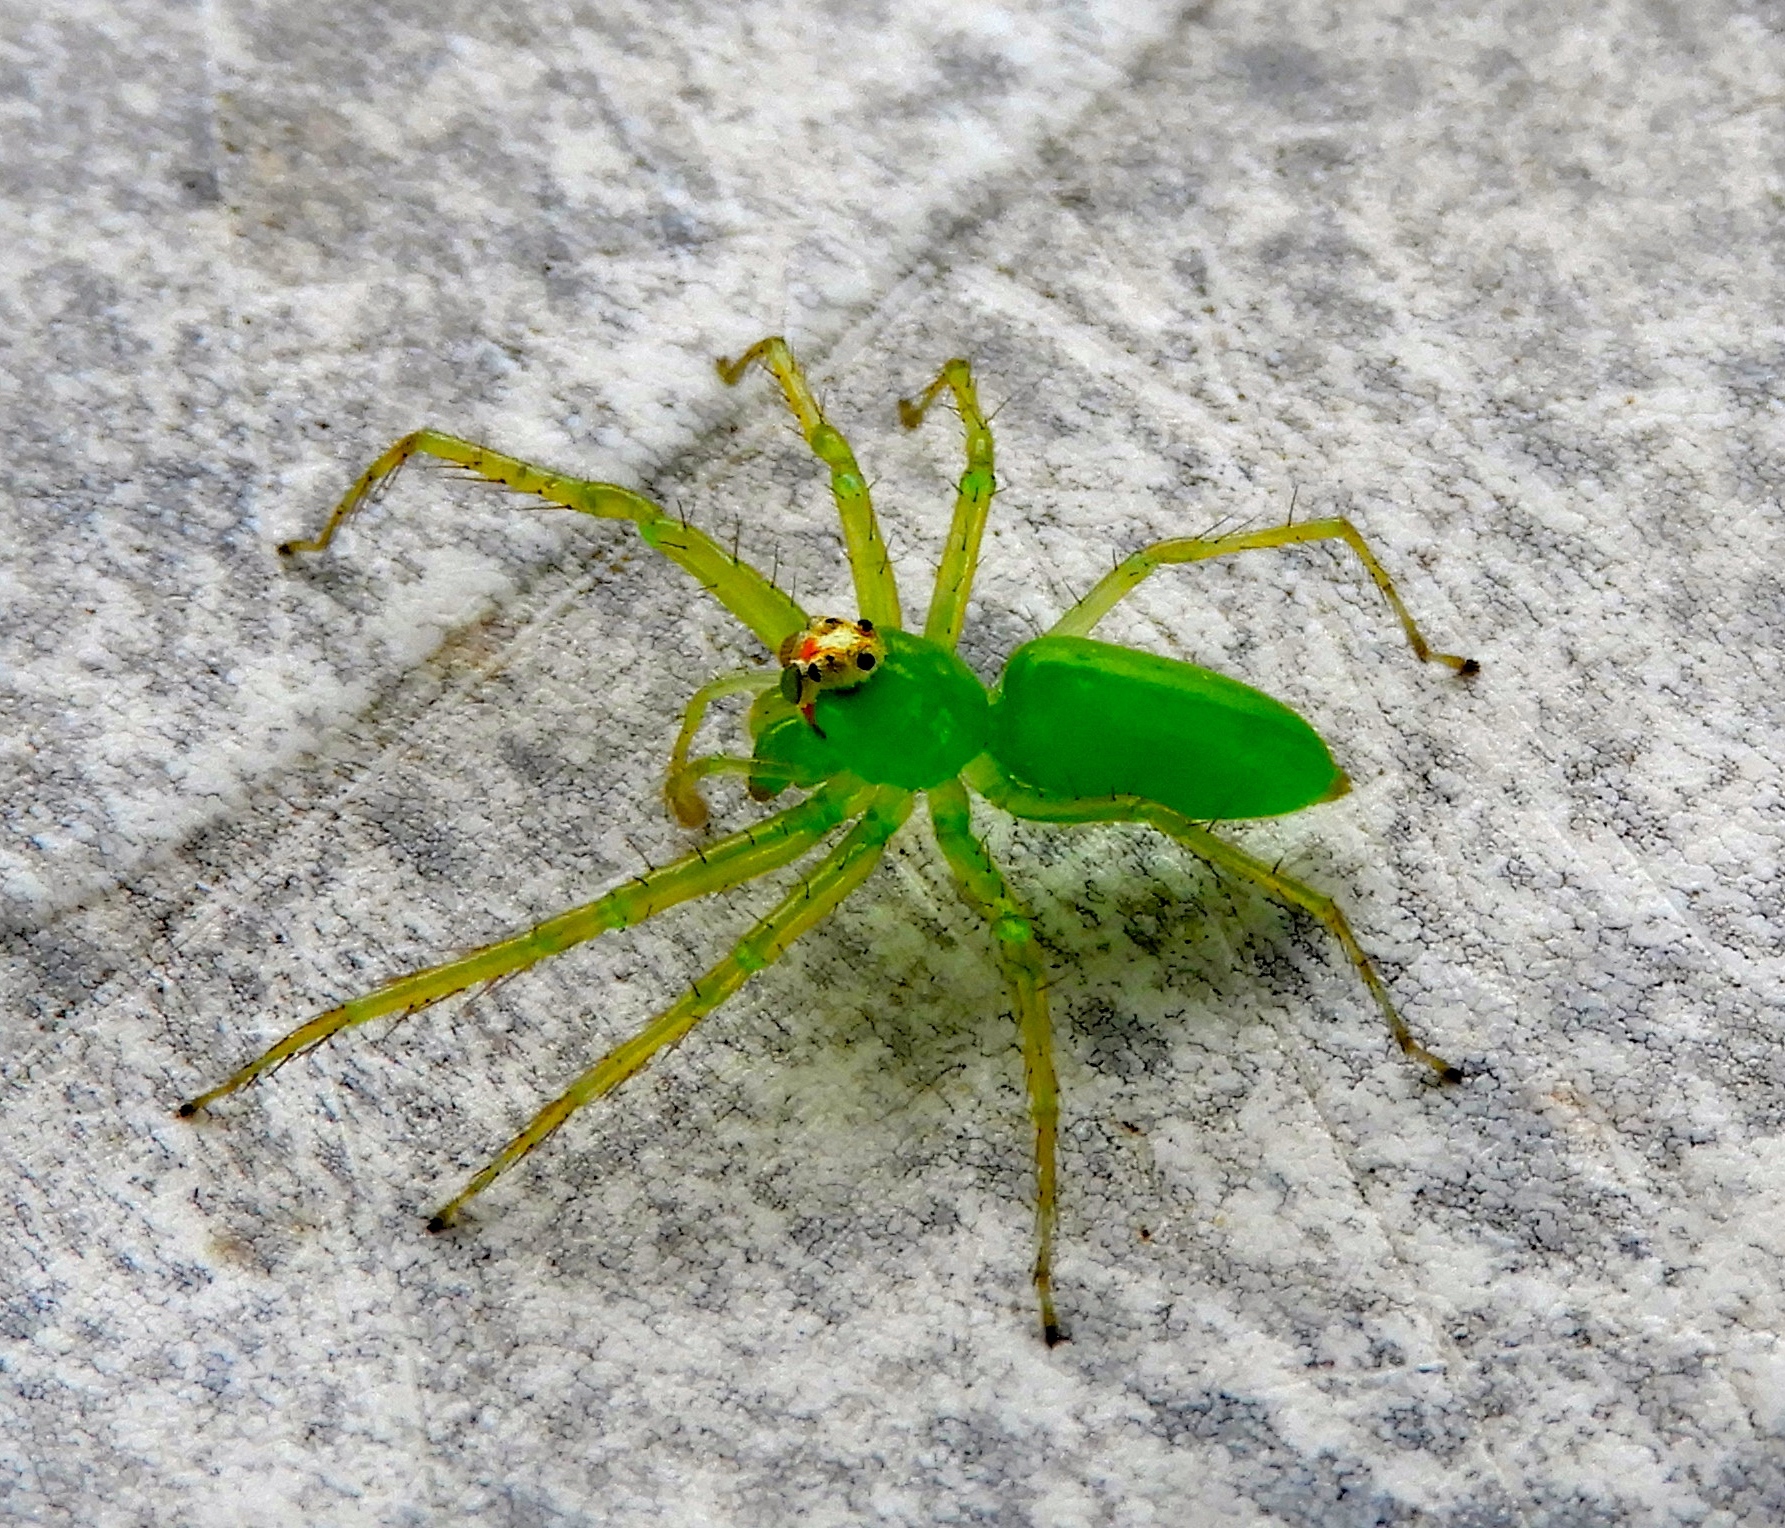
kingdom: Animalia
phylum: Arthropoda
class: Arachnida
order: Araneae
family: Salticidae
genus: Lyssomanes
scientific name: Lyssomanes
